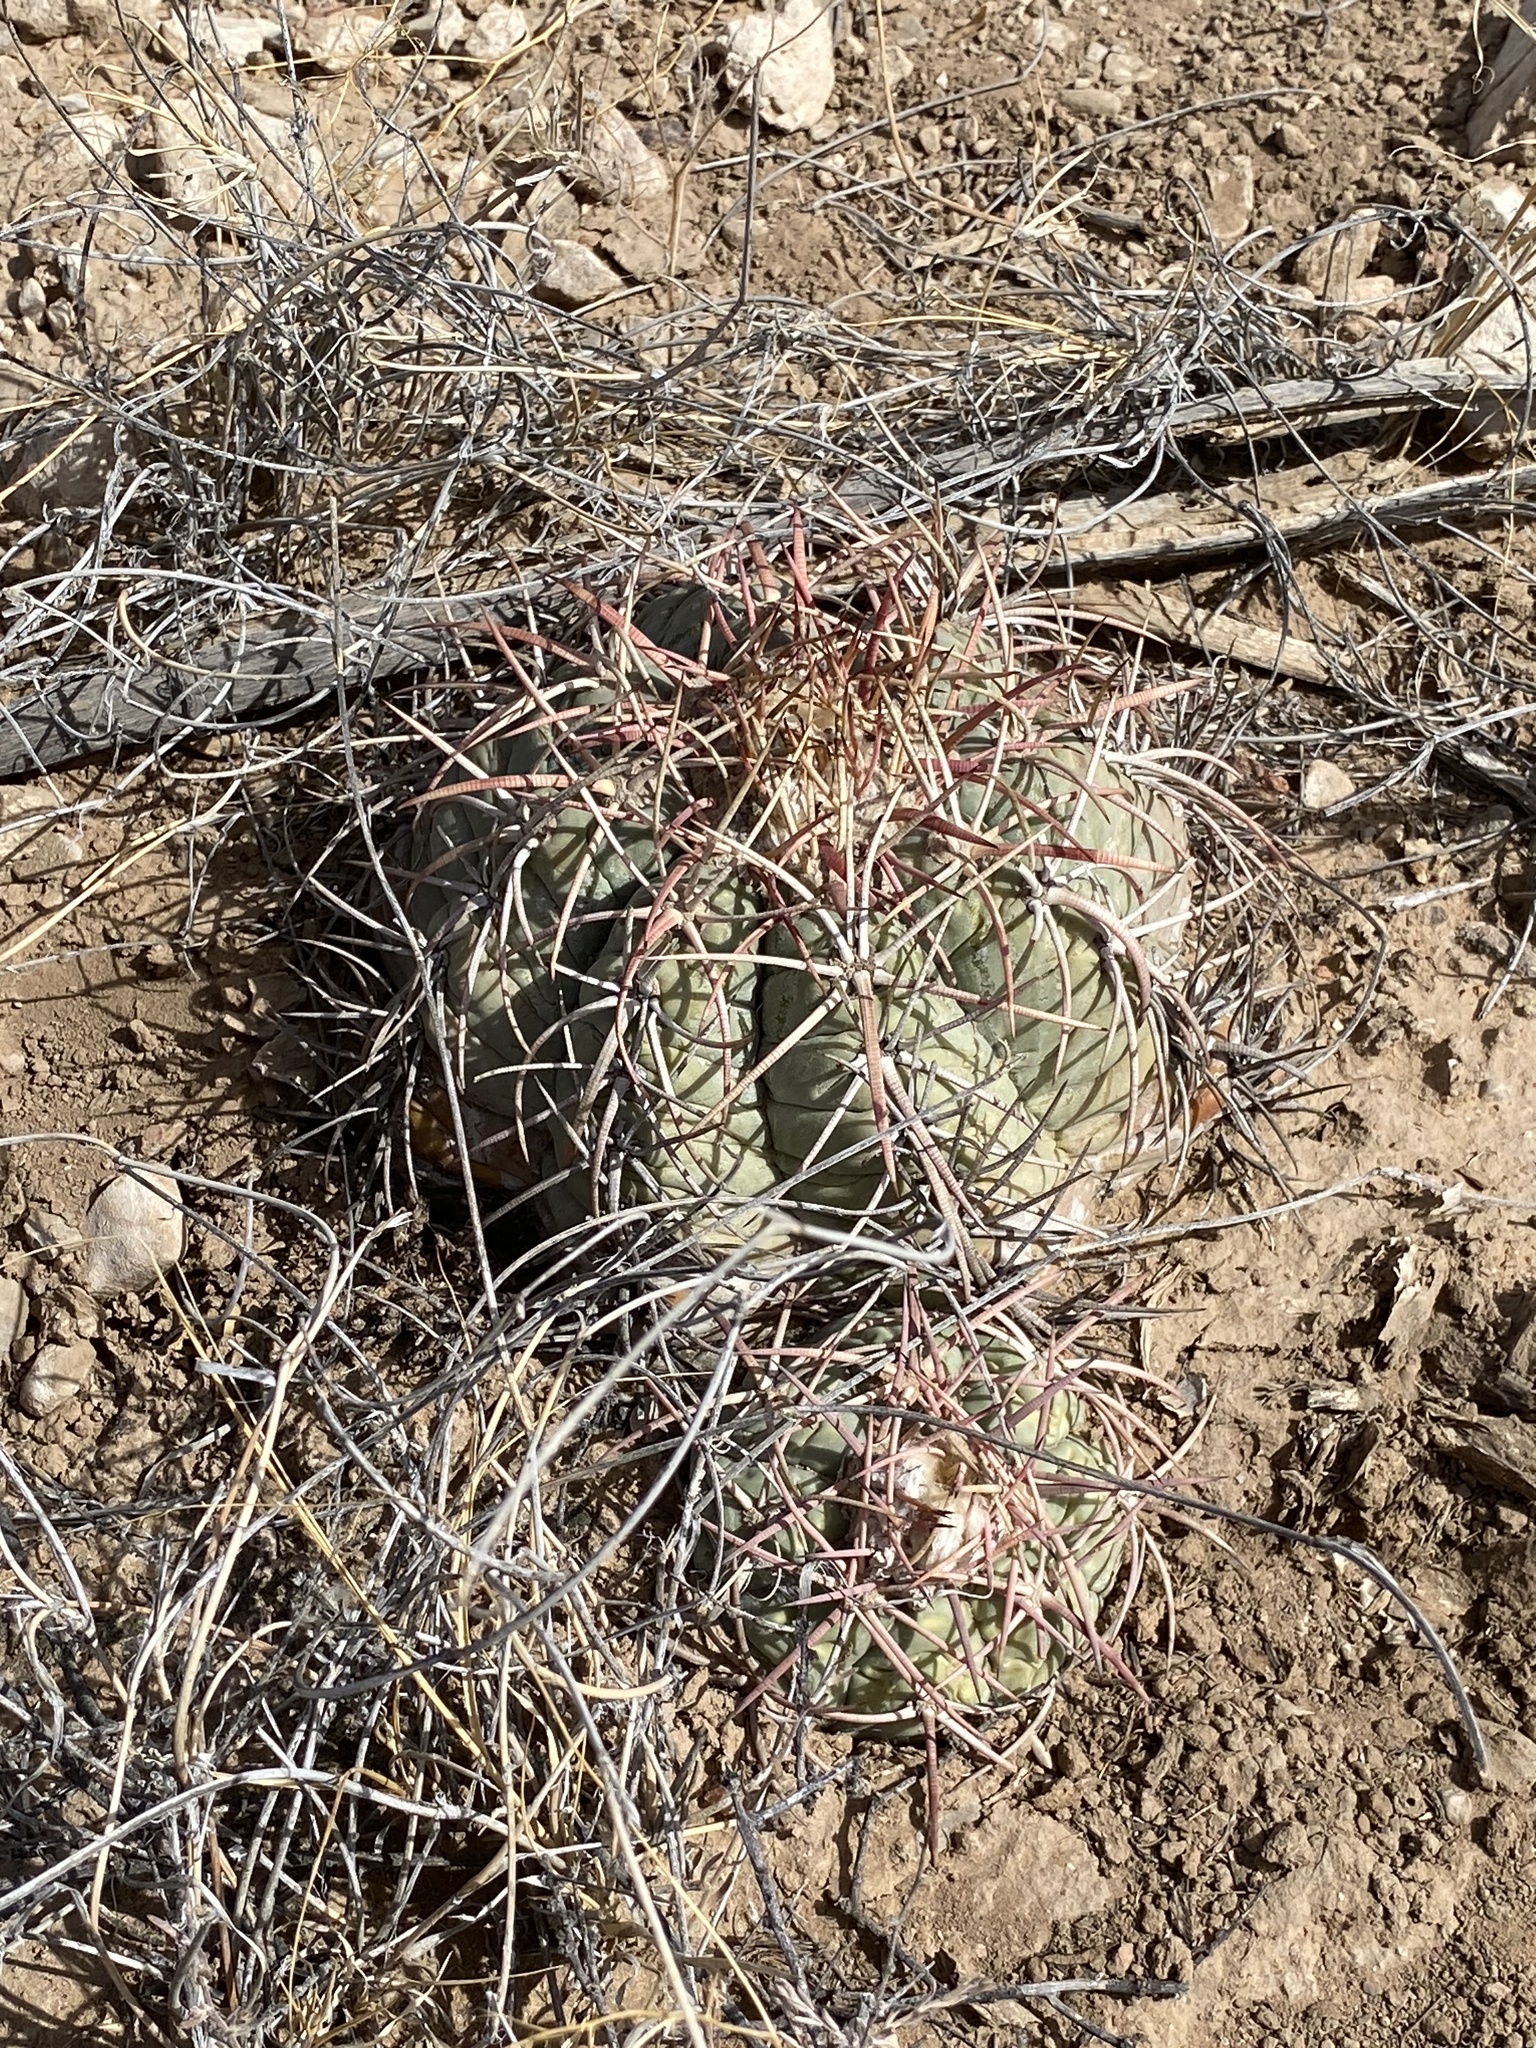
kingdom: Plantae
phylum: Tracheophyta
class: Magnoliopsida
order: Caryophyllales
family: Cactaceae
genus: Echinocactus
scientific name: Echinocactus horizonthalonius
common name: Devilshead
